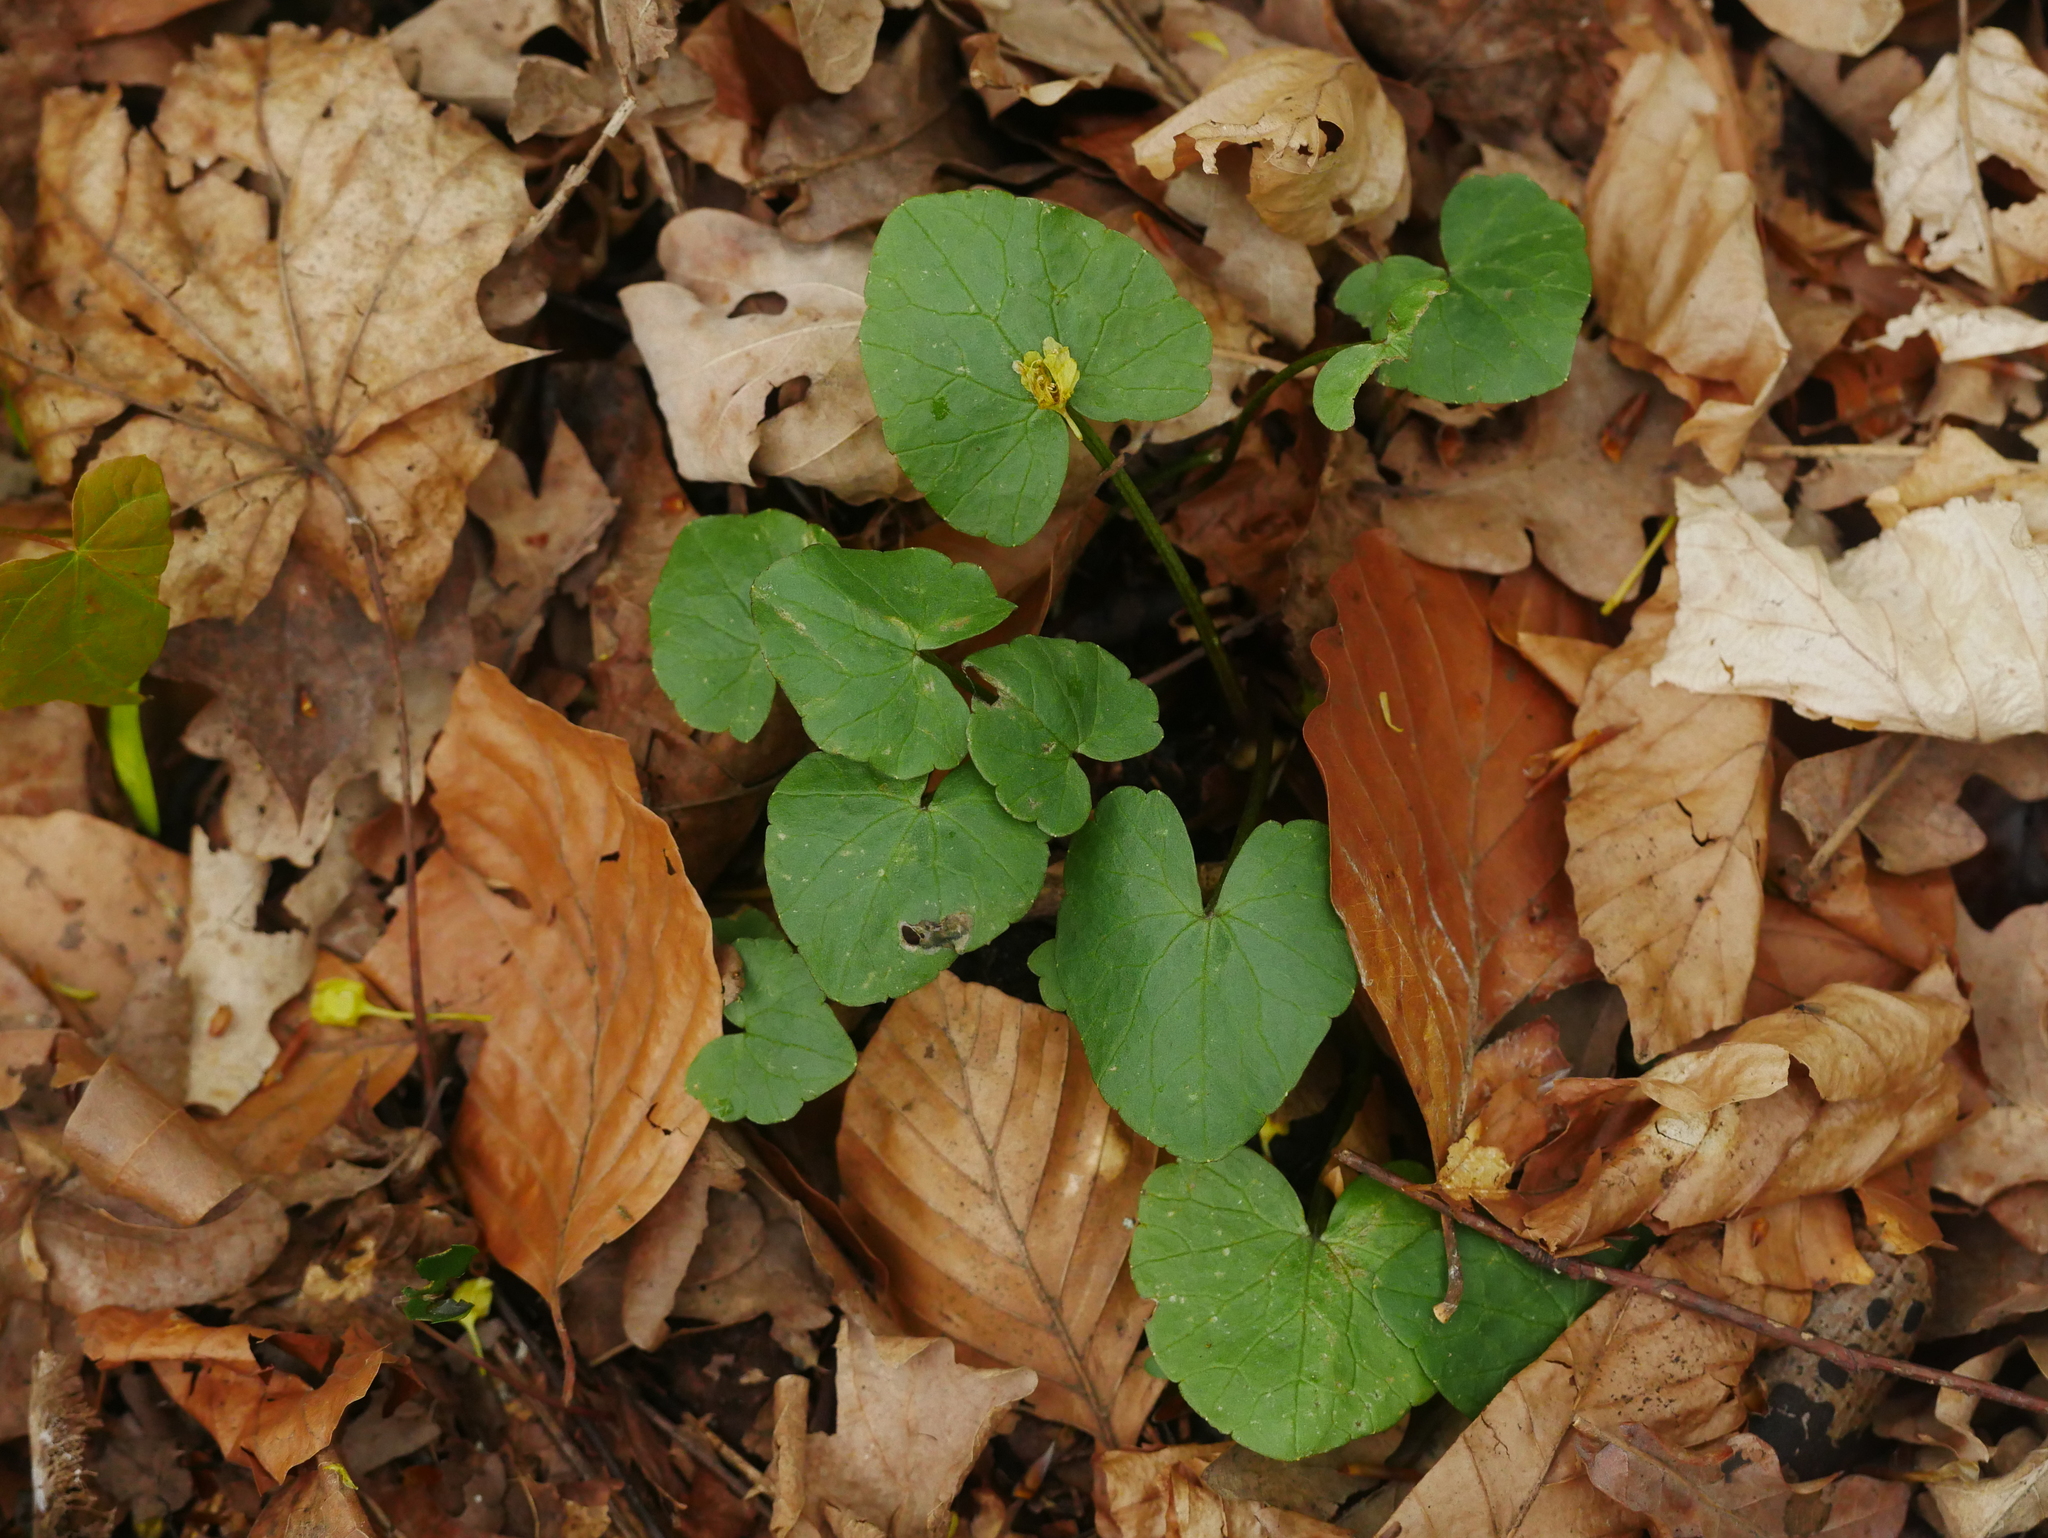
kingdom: Plantae
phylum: Tracheophyta
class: Magnoliopsida
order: Ranunculales
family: Ranunculaceae
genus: Ficaria
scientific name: Ficaria verna
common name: Lesser celandine
